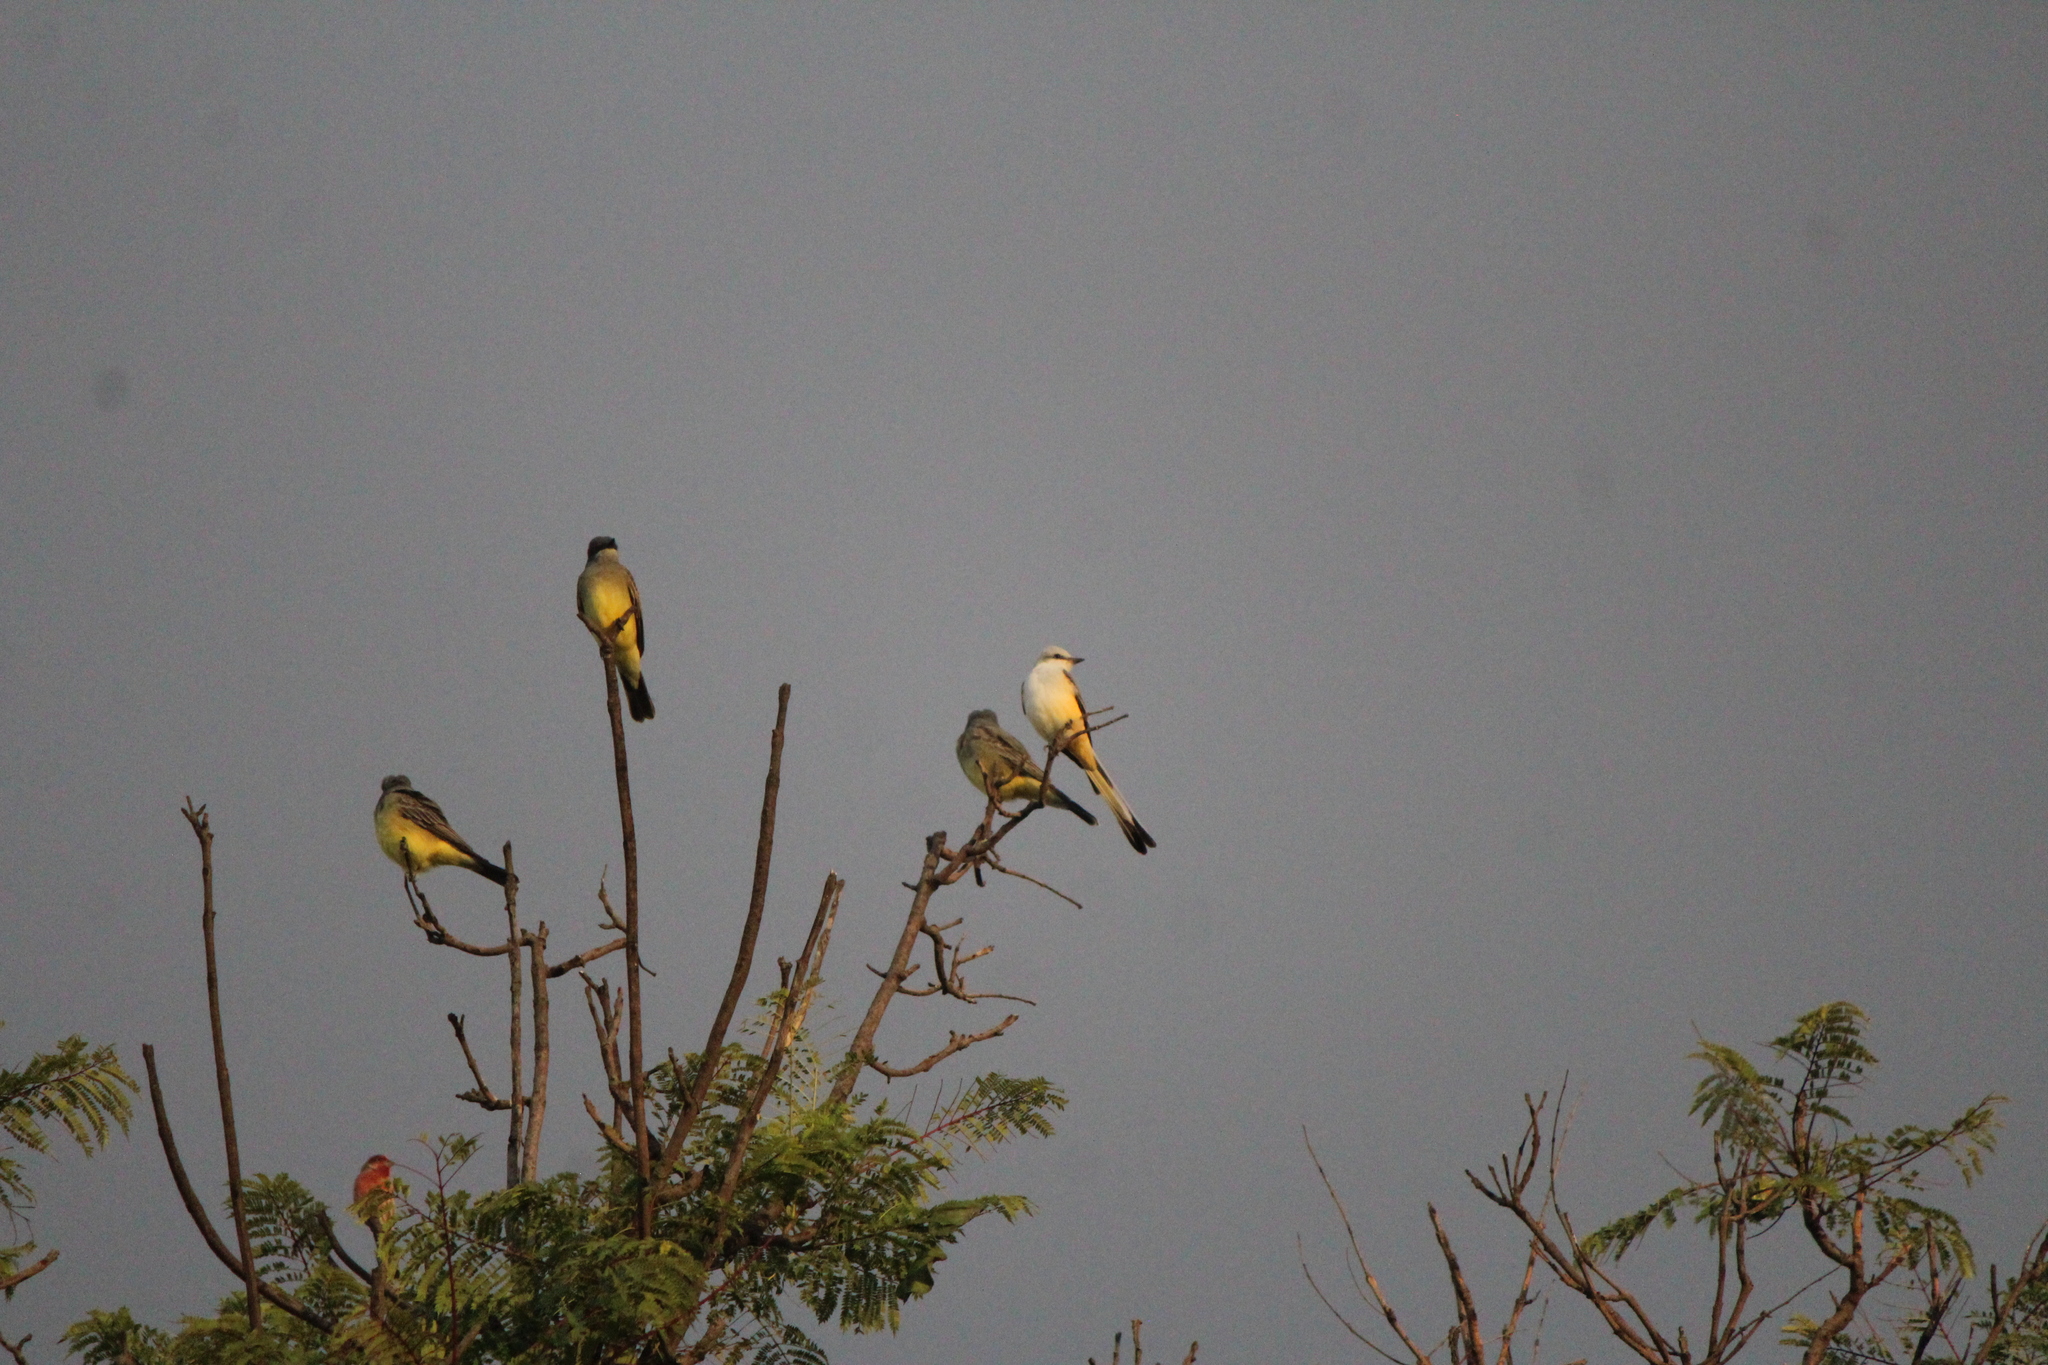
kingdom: Animalia
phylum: Chordata
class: Aves
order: Passeriformes
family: Tyrannidae
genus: Tyrannus
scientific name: Tyrannus forficatus
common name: Scissor-tailed flycatcher
